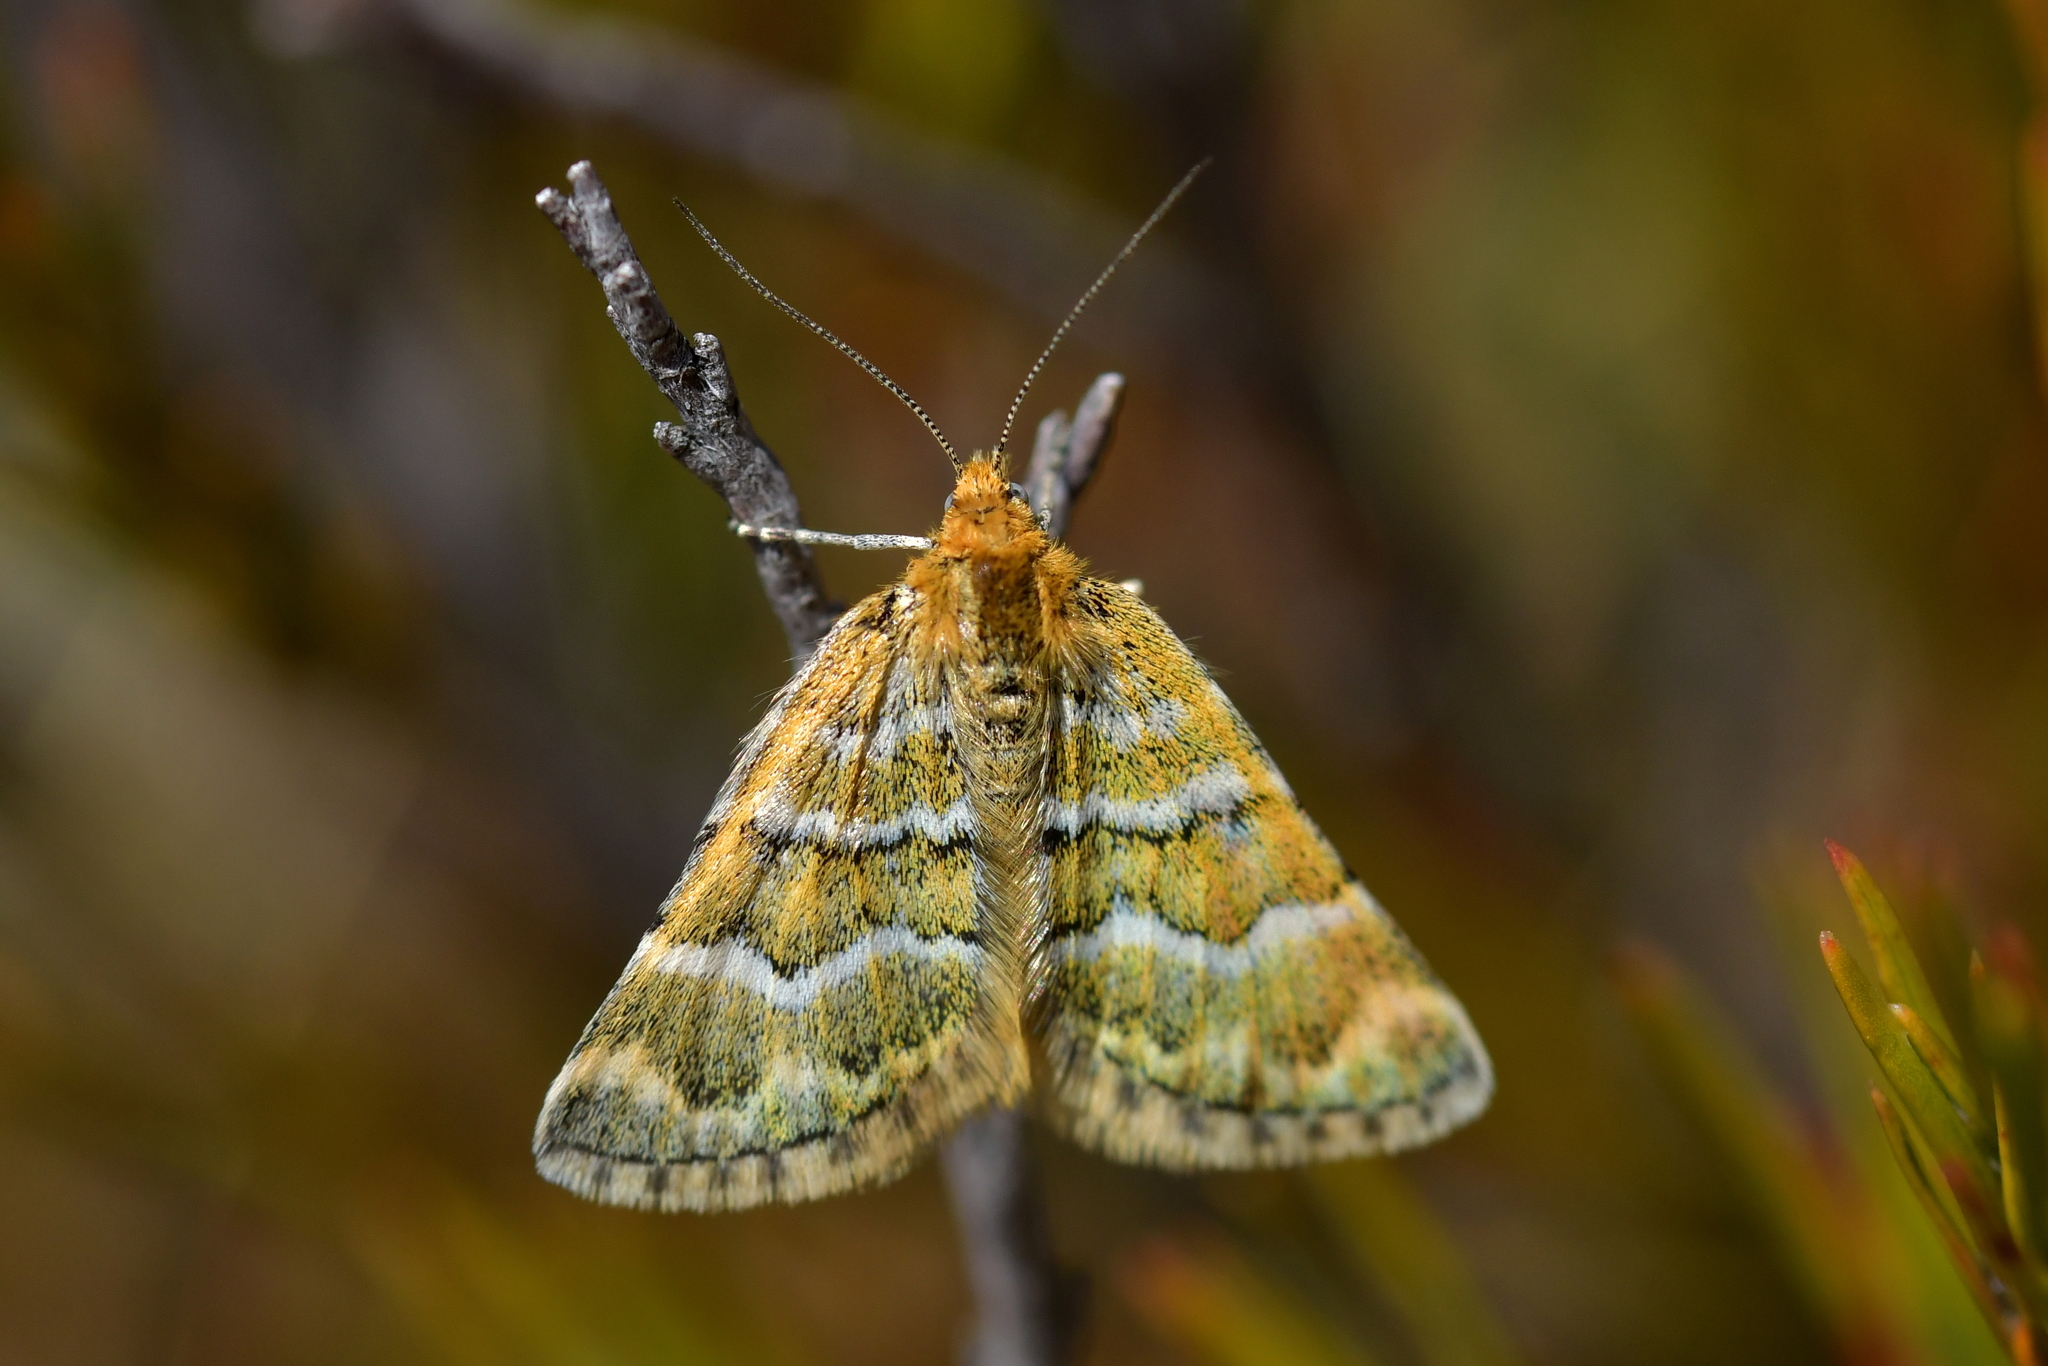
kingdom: Animalia
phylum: Arthropoda
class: Insecta
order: Lepidoptera
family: Geometridae
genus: Notoreas
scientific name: Notoreas paradelpha
